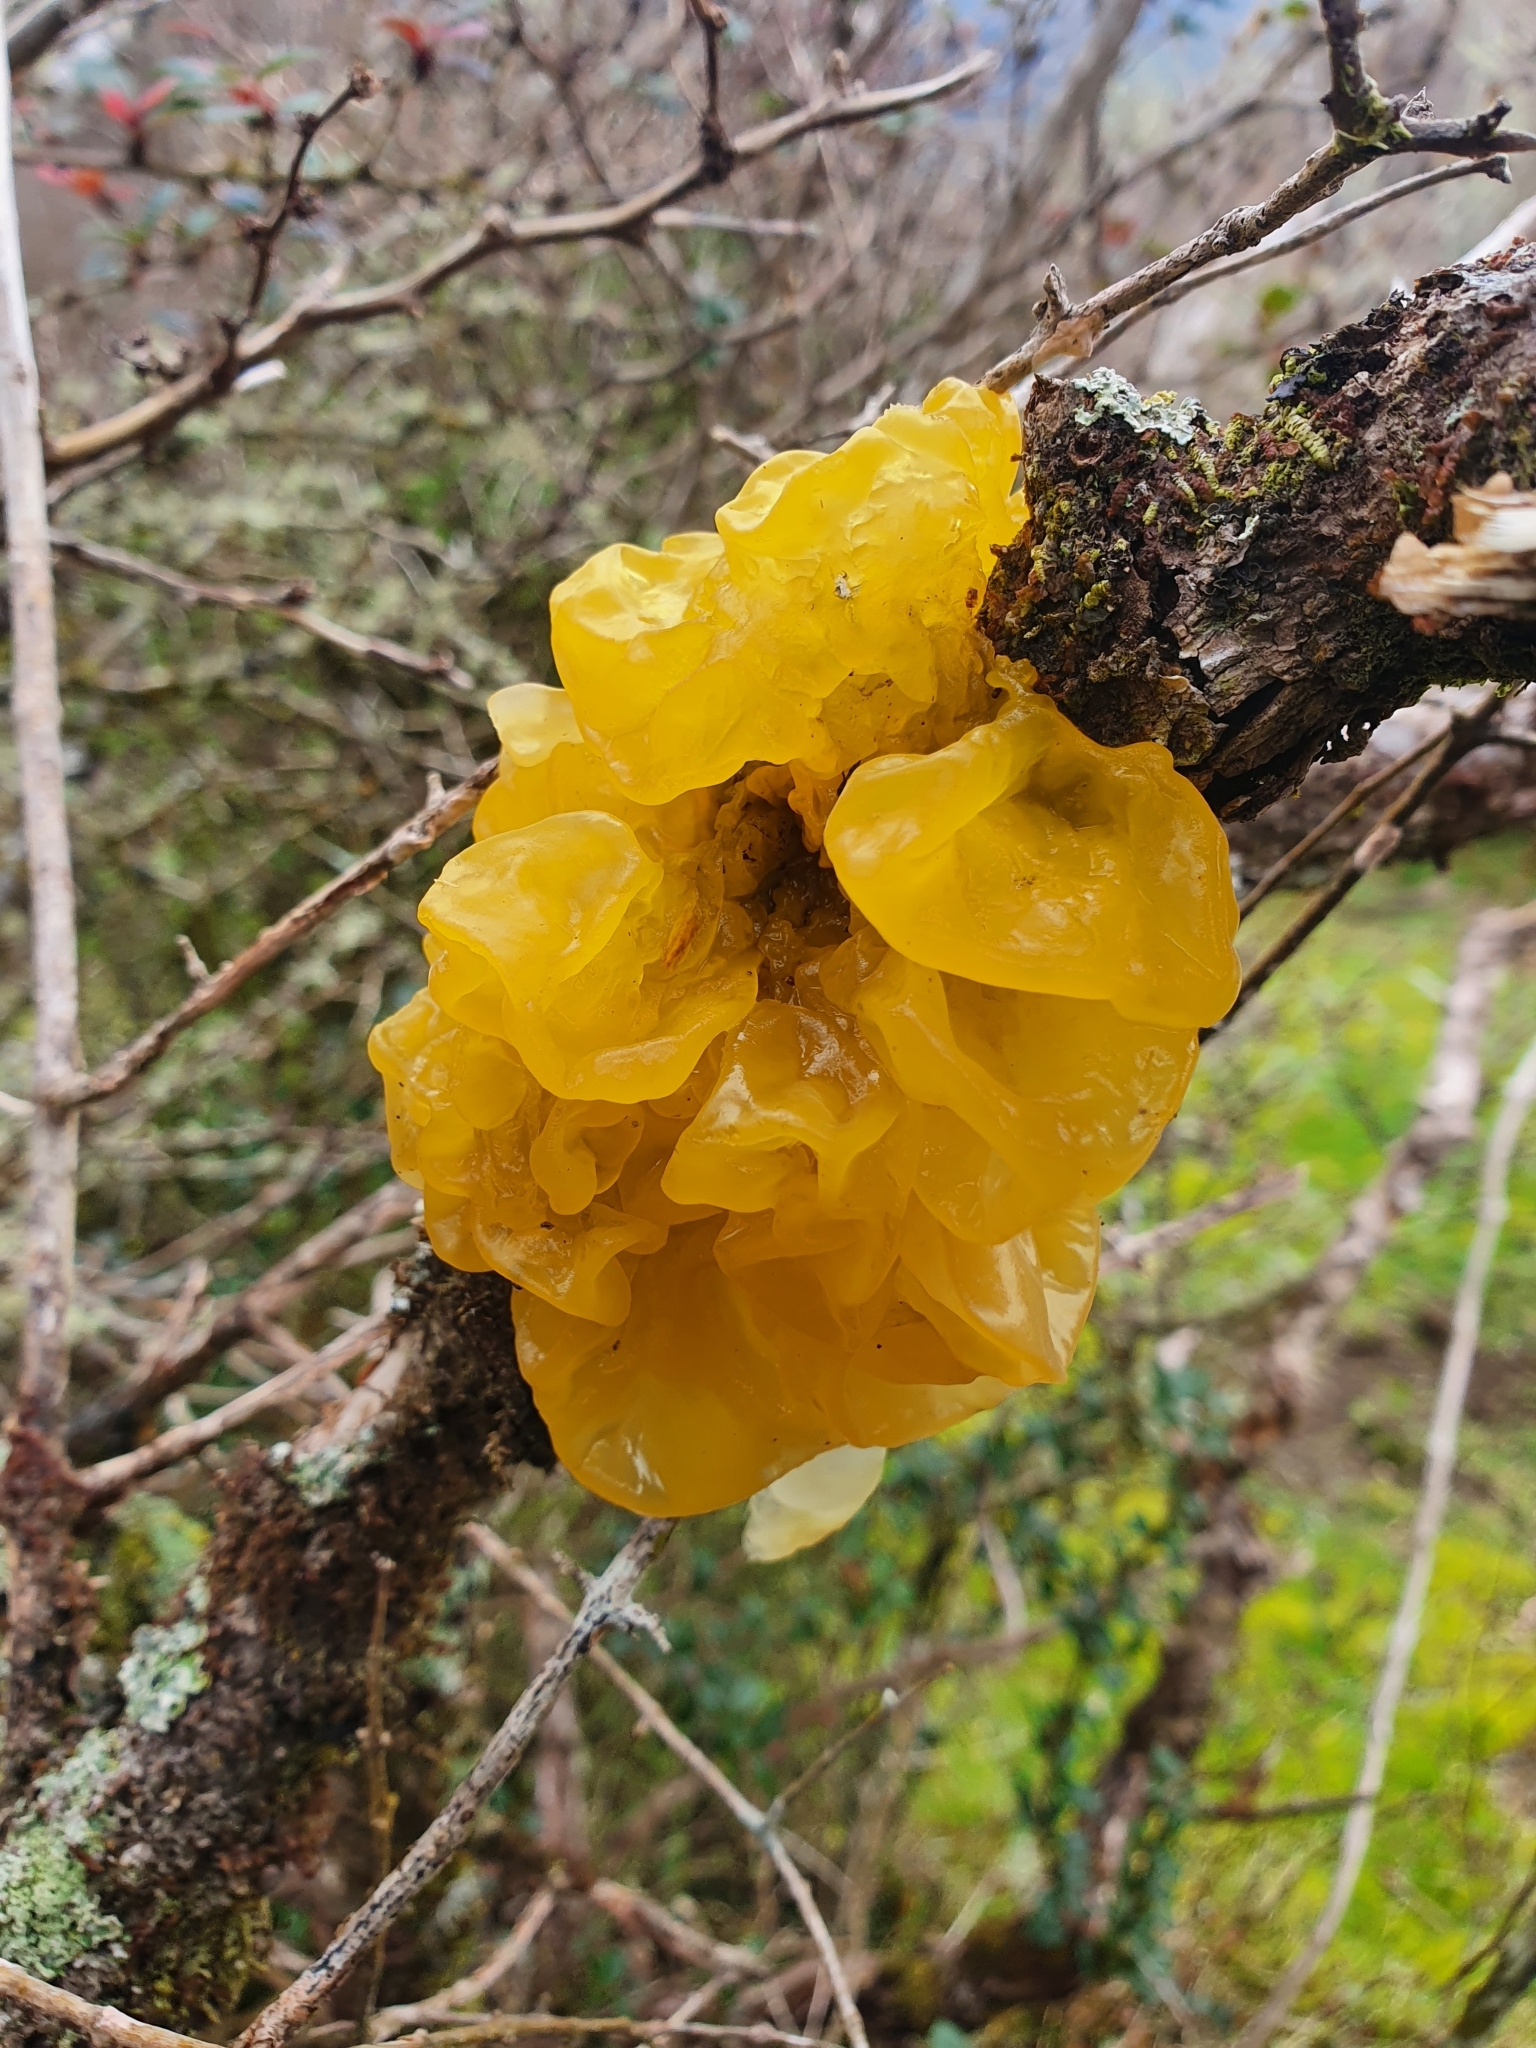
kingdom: Fungi
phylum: Basidiomycota
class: Tremellomycetes
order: Tremellales
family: Tremellaceae
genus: Tremella
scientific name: Tremella mesenterica
